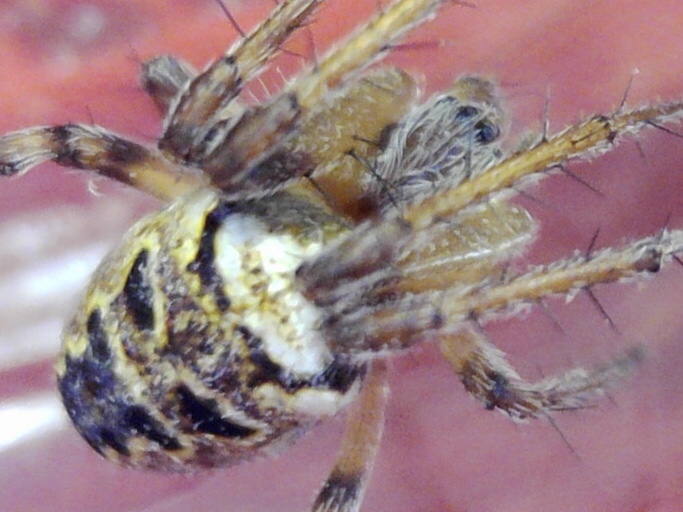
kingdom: Animalia
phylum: Arthropoda
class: Arachnida
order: Araneae
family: Araneidae
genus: Zilla
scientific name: Zilla diodia
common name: Zilla diodia
